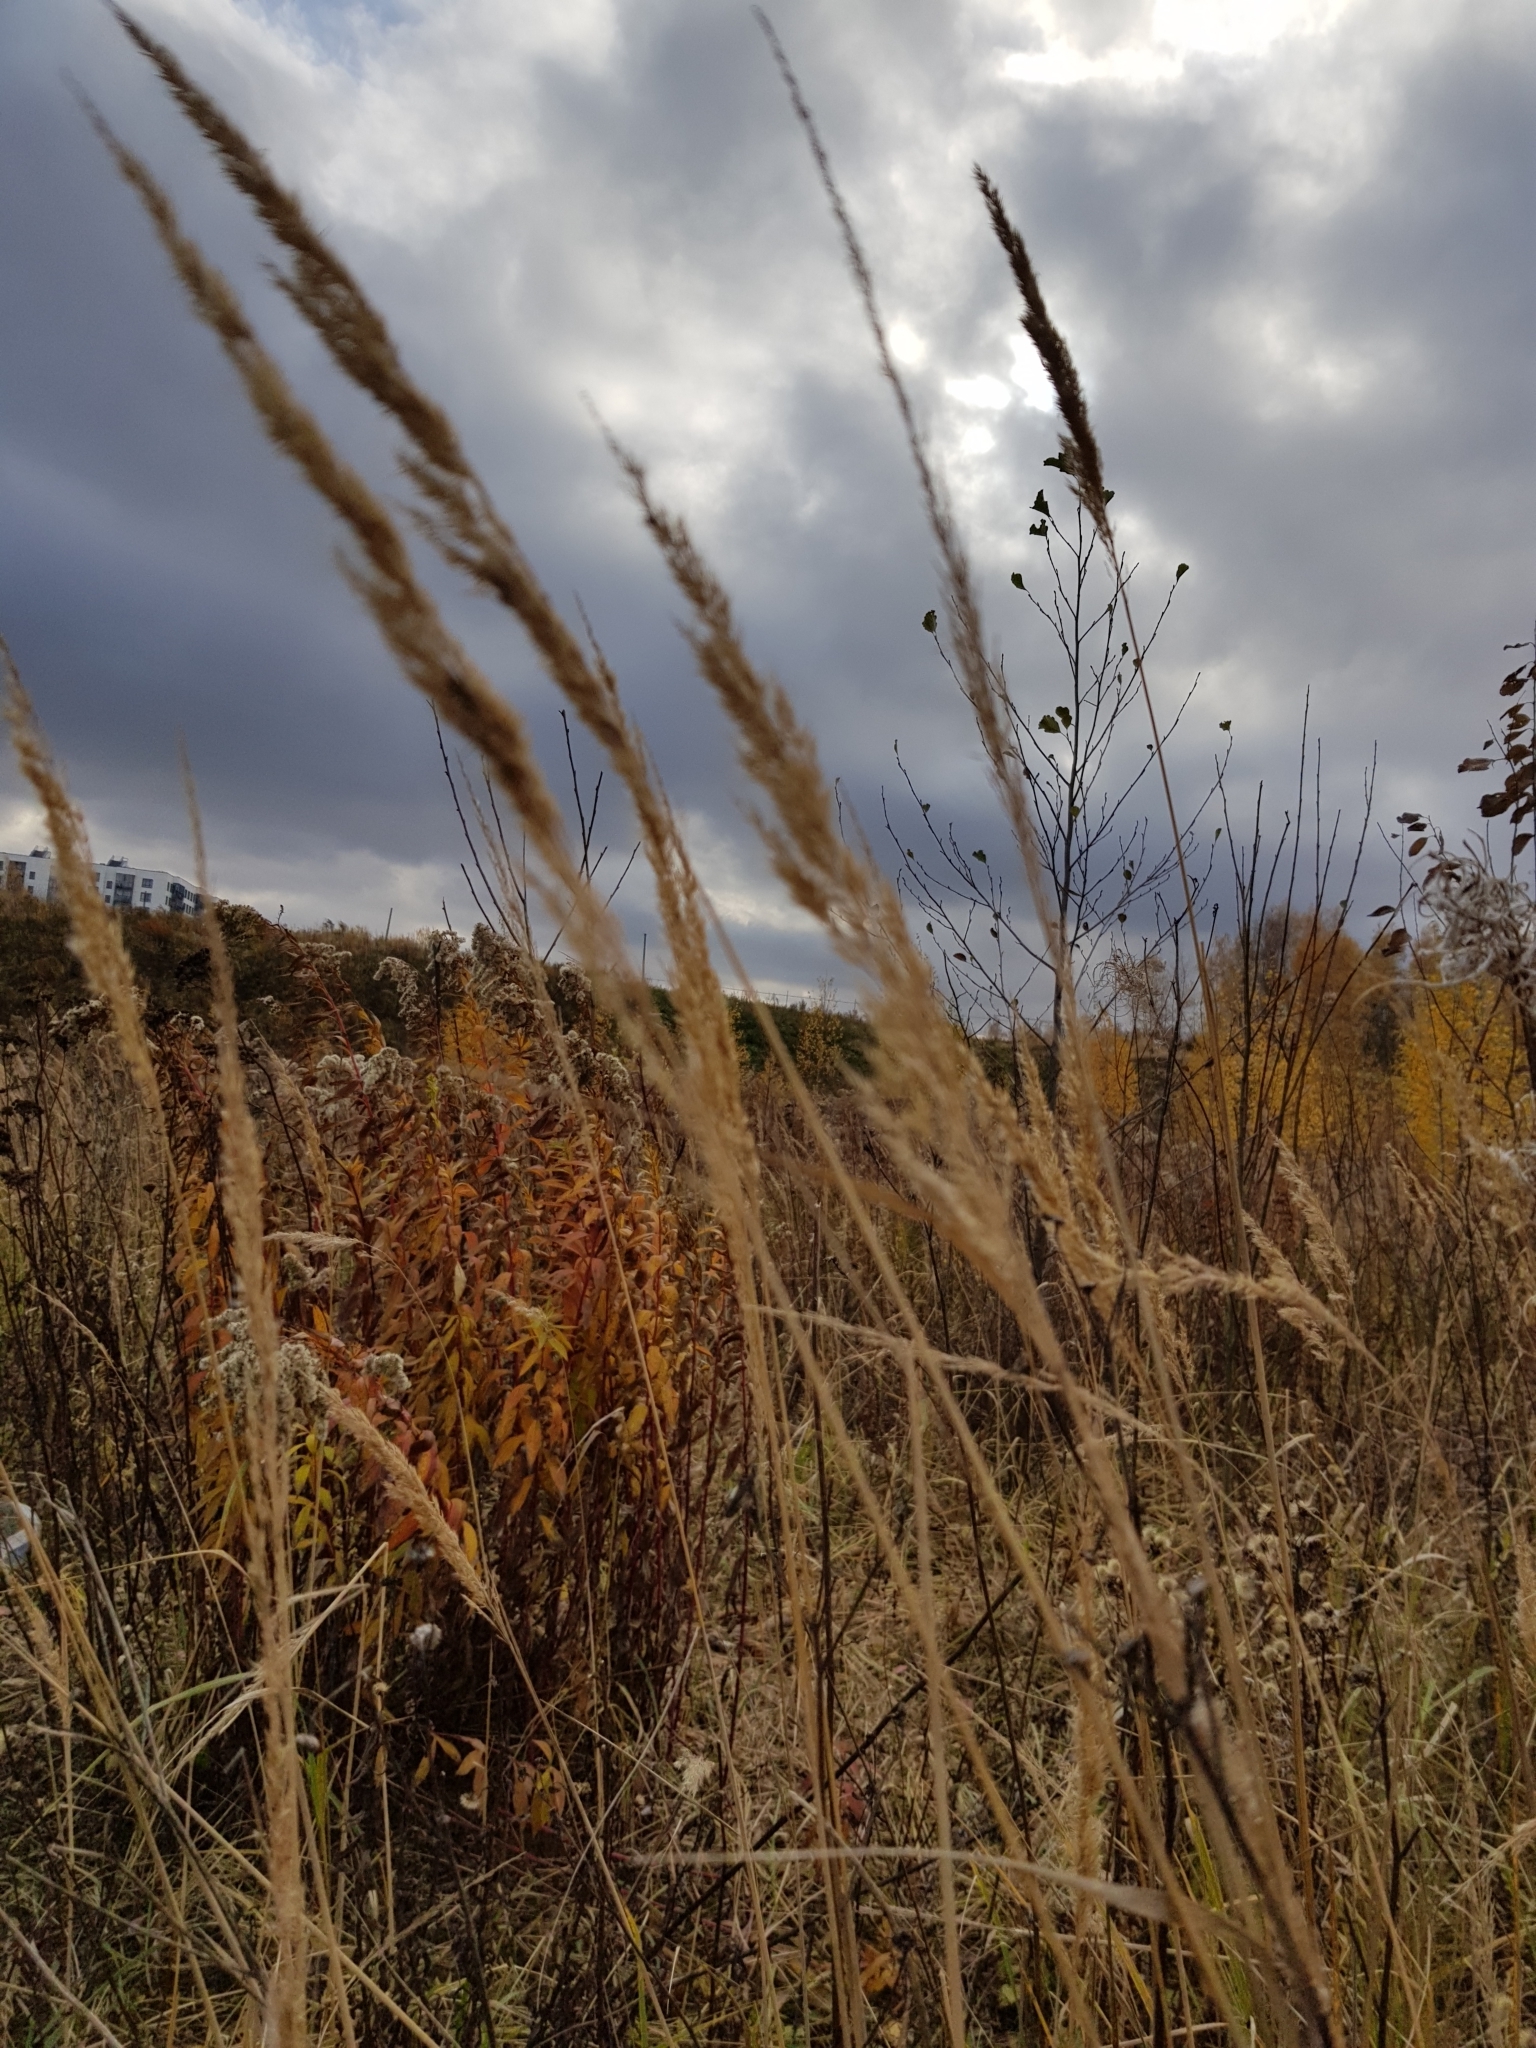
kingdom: Plantae
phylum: Tracheophyta
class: Liliopsida
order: Poales
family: Poaceae
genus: Calamagrostis
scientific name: Calamagrostis epigejos
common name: Wood small-reed
